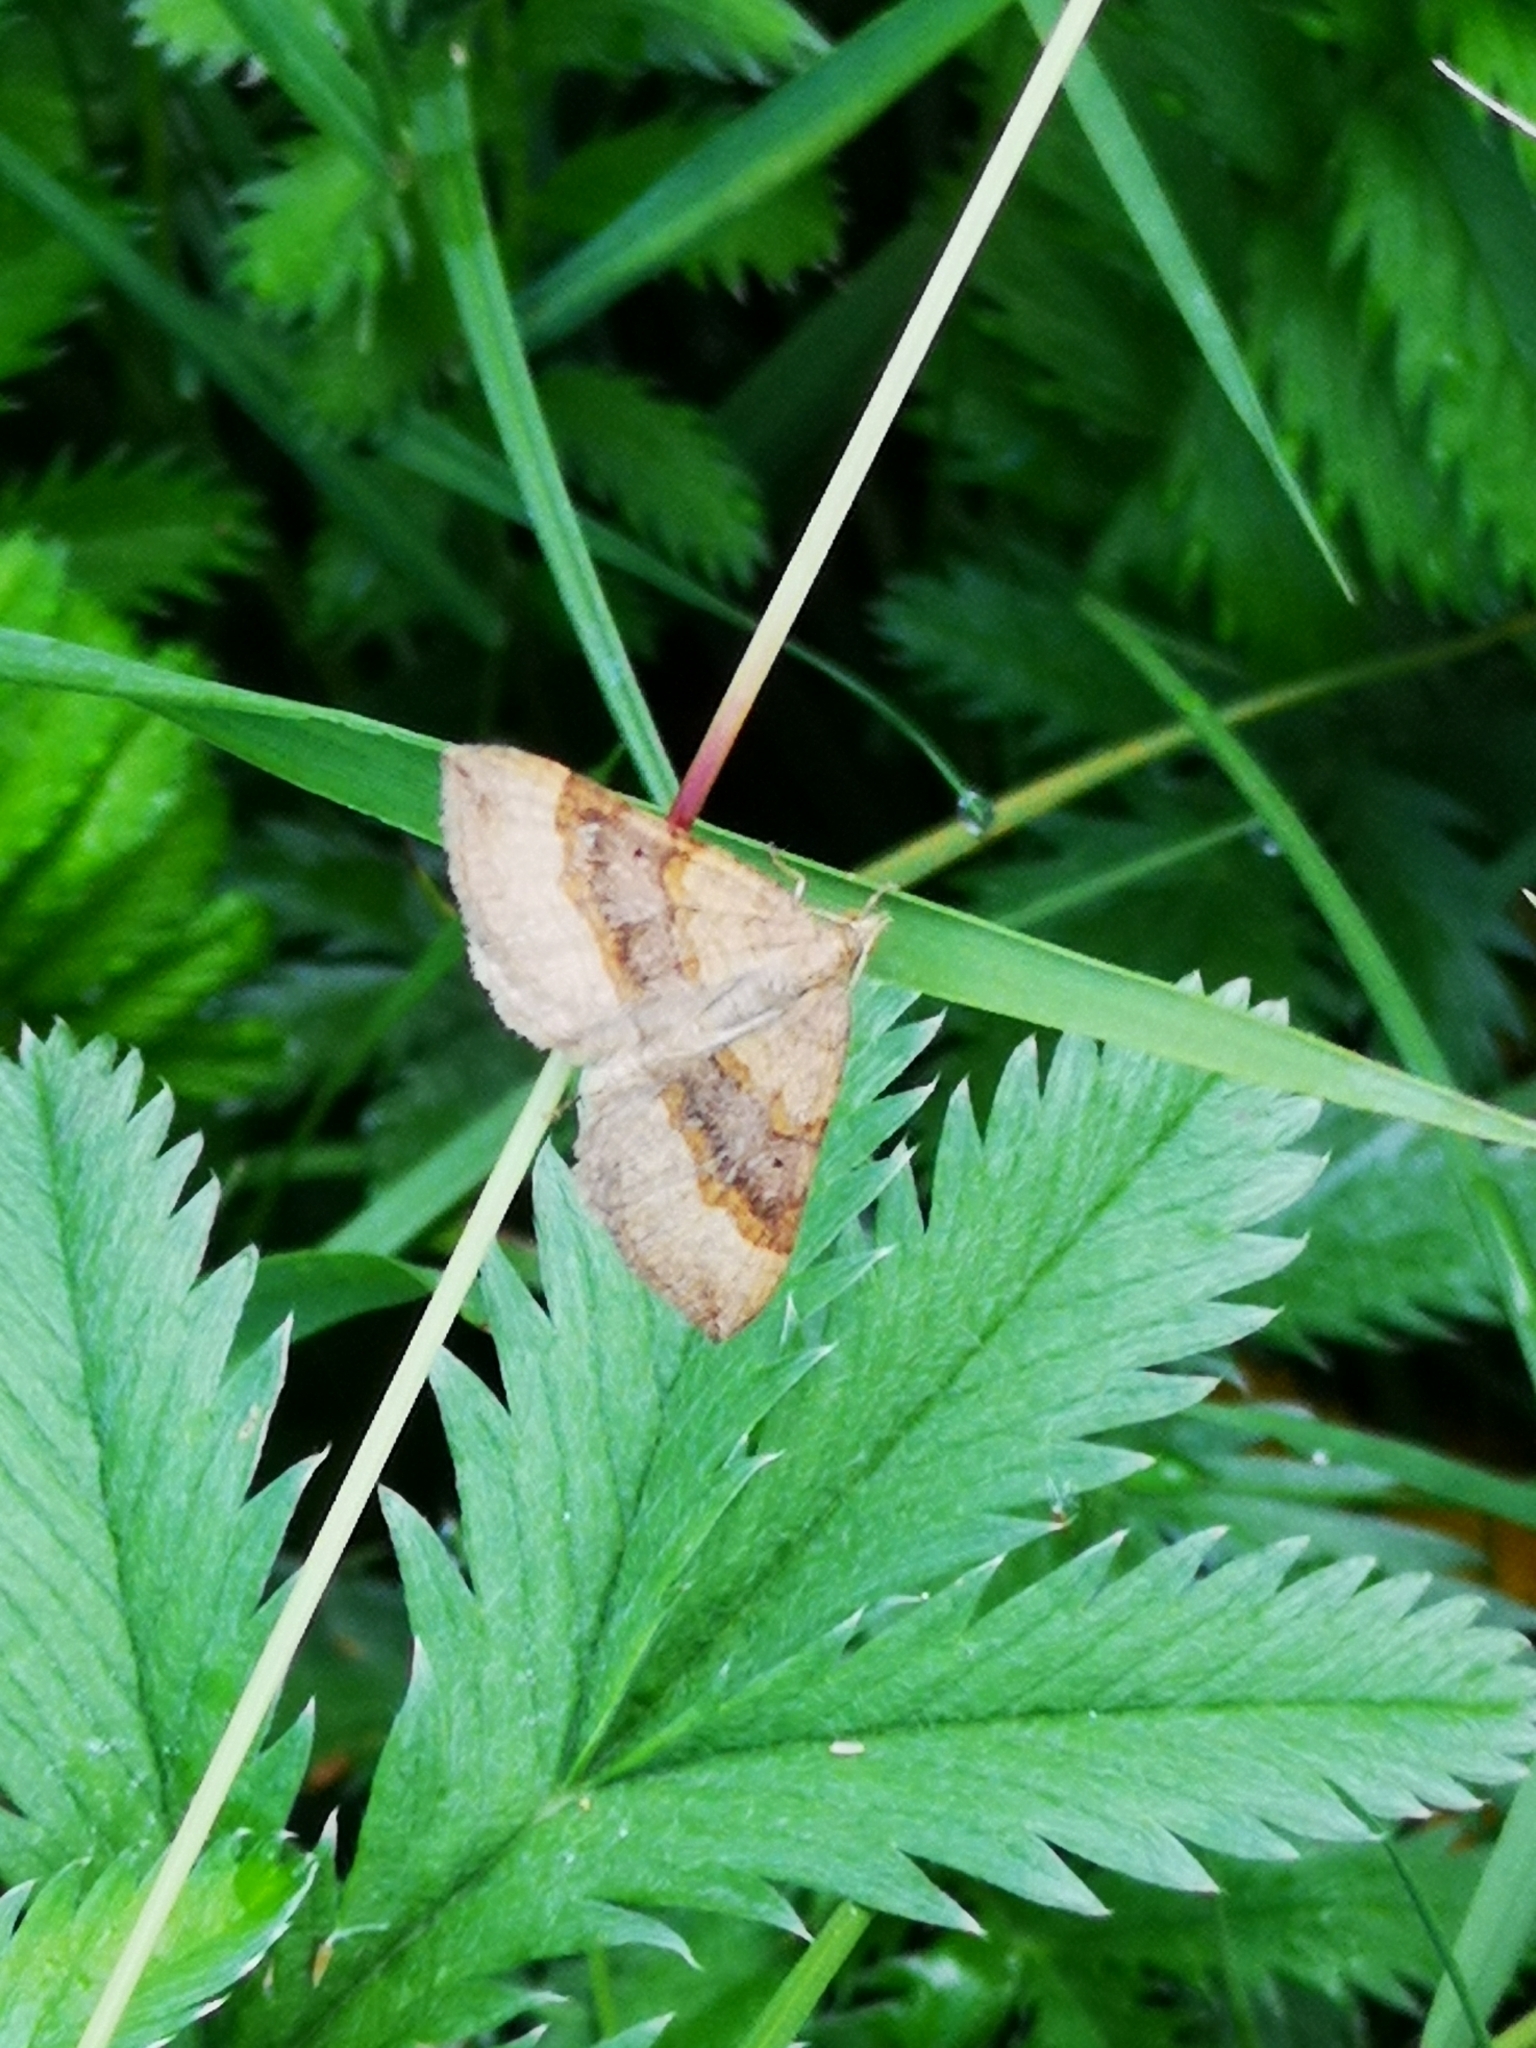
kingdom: Animalia
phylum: Arthropoda
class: Insecta
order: Lepidoptera
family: Geometridae
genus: Scotopteryx
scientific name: Scotopteryx chenopodiata
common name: Shaded broad-bar
